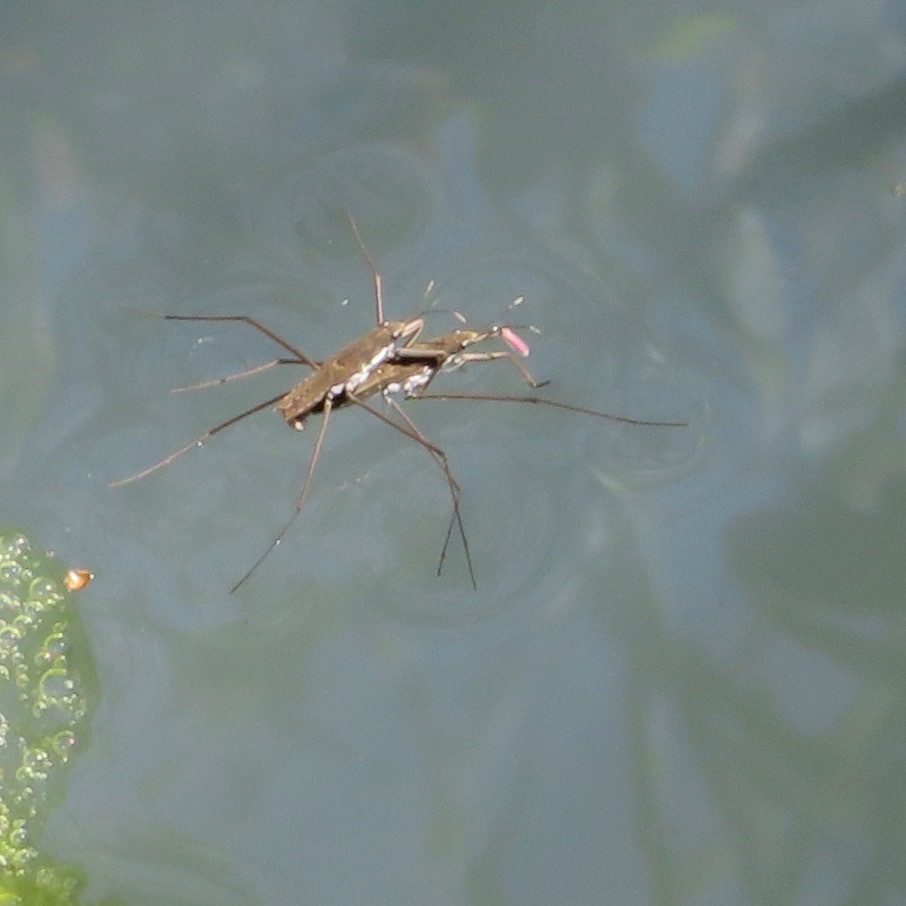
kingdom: Animalia
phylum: Arthropoda
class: Insecta
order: Hemiptera
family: Gerridae
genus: Aquarius
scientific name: Aquarius remigis
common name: Common water strider
